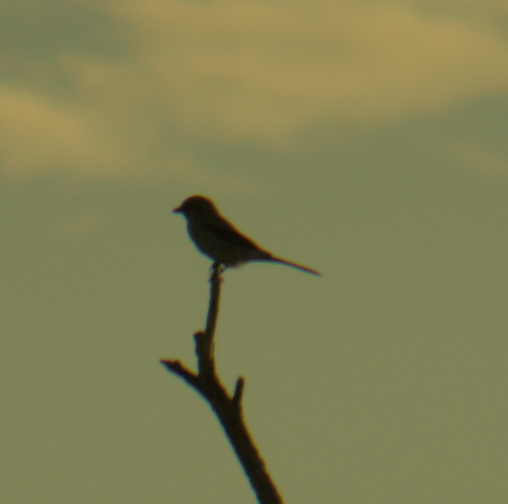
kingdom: Animalia
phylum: Chordata
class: Aves
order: Passeriformes
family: Laniidae
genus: Lanius
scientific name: Lanius borealis
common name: Northern shrike
